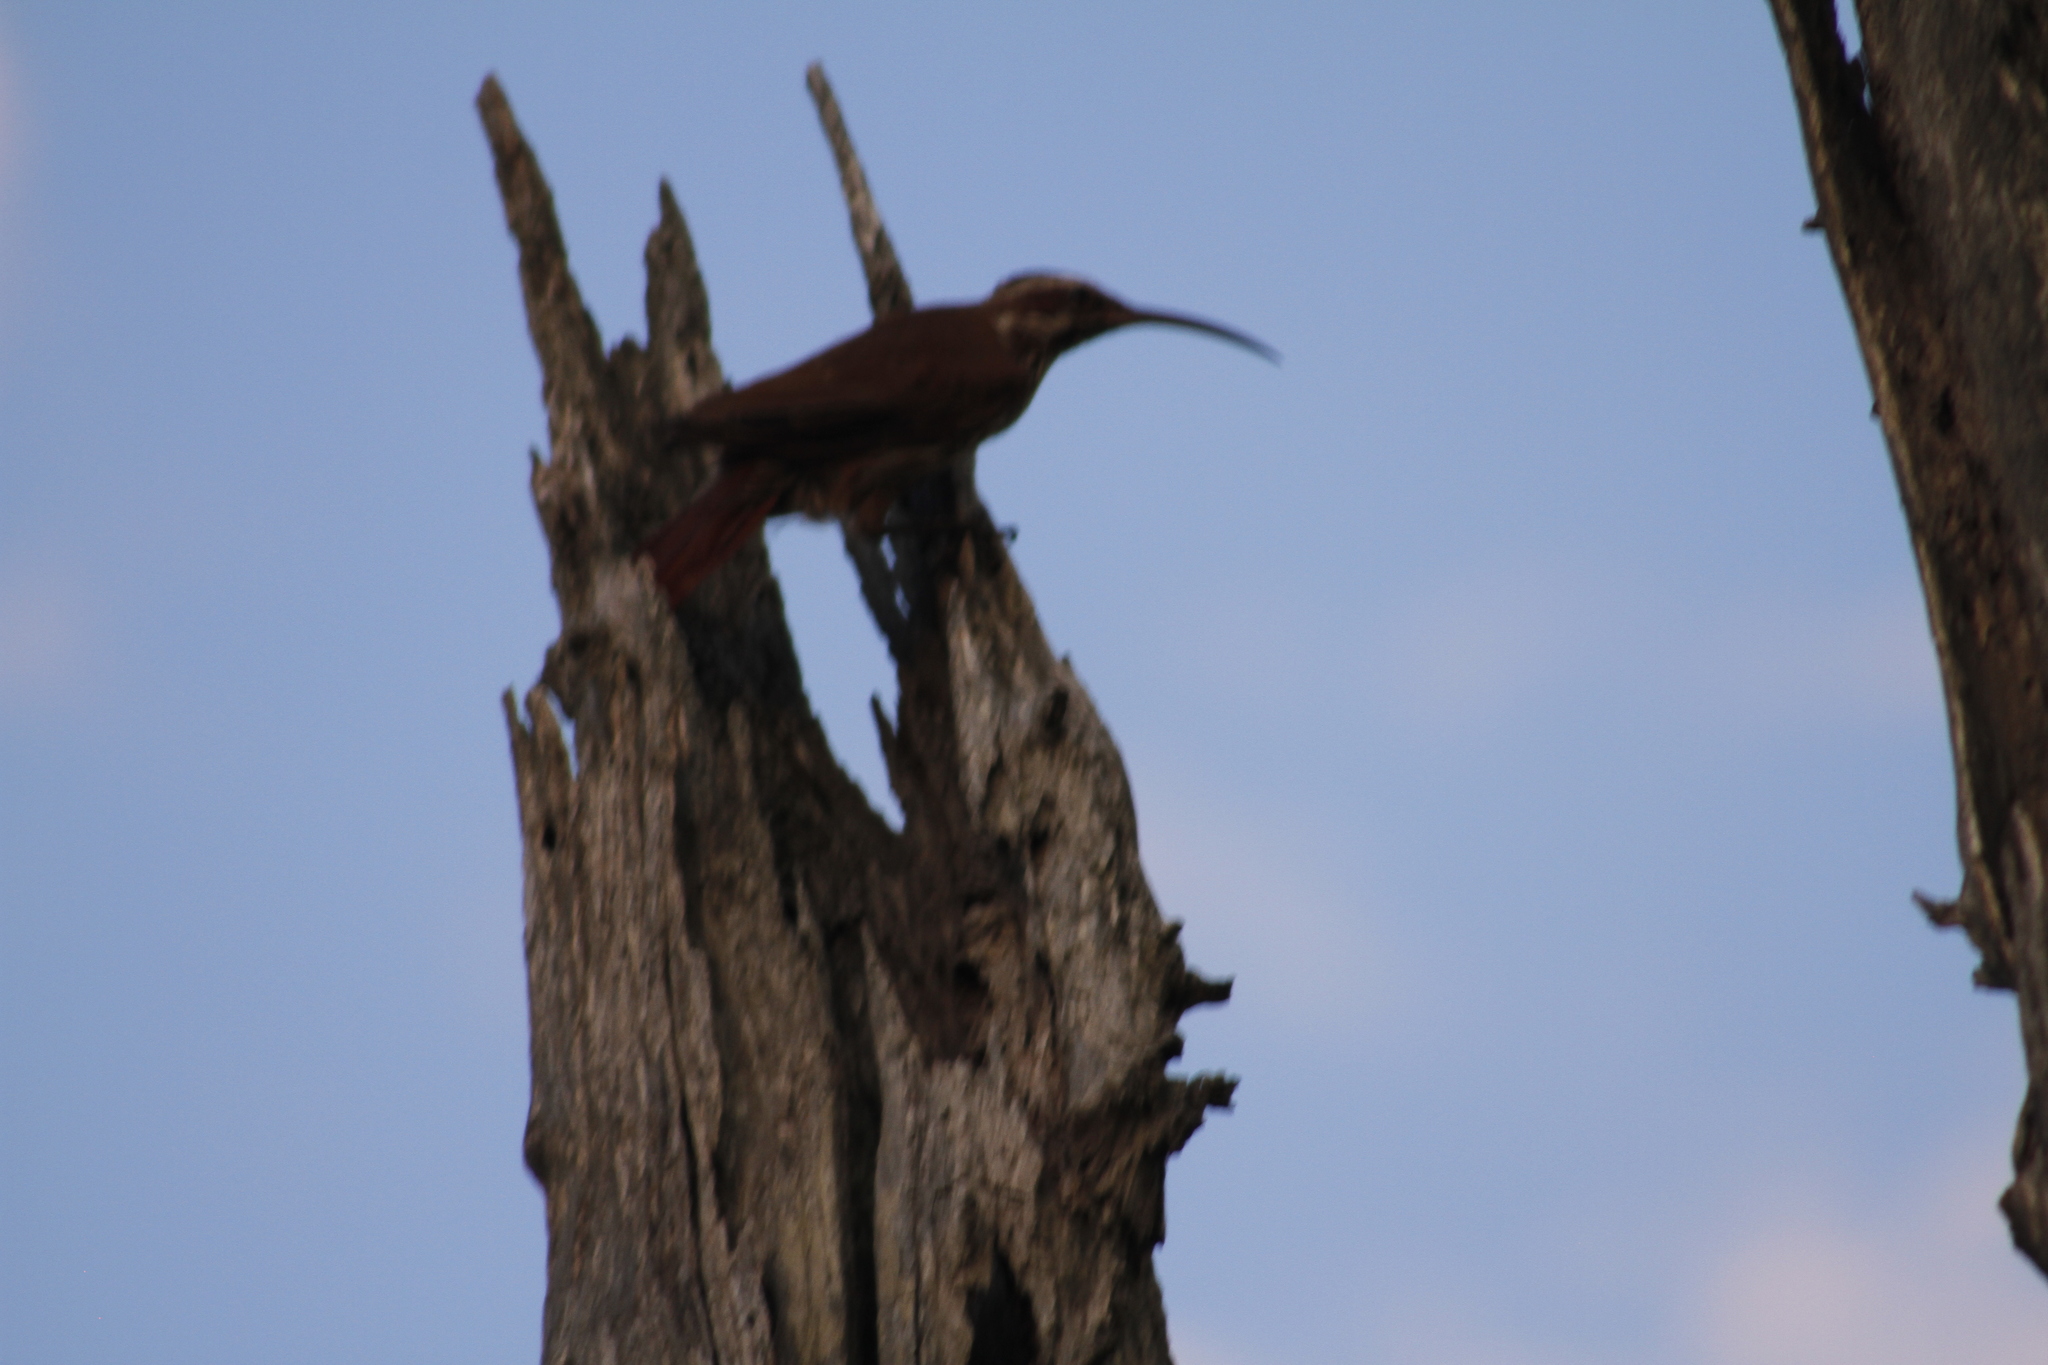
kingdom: Animalia
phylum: Chordata
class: Aves
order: Passeriformes
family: Furnariidae
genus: Drymornis
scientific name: Drymornis bridgesii
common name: Scimitar-billed woodcreeper
